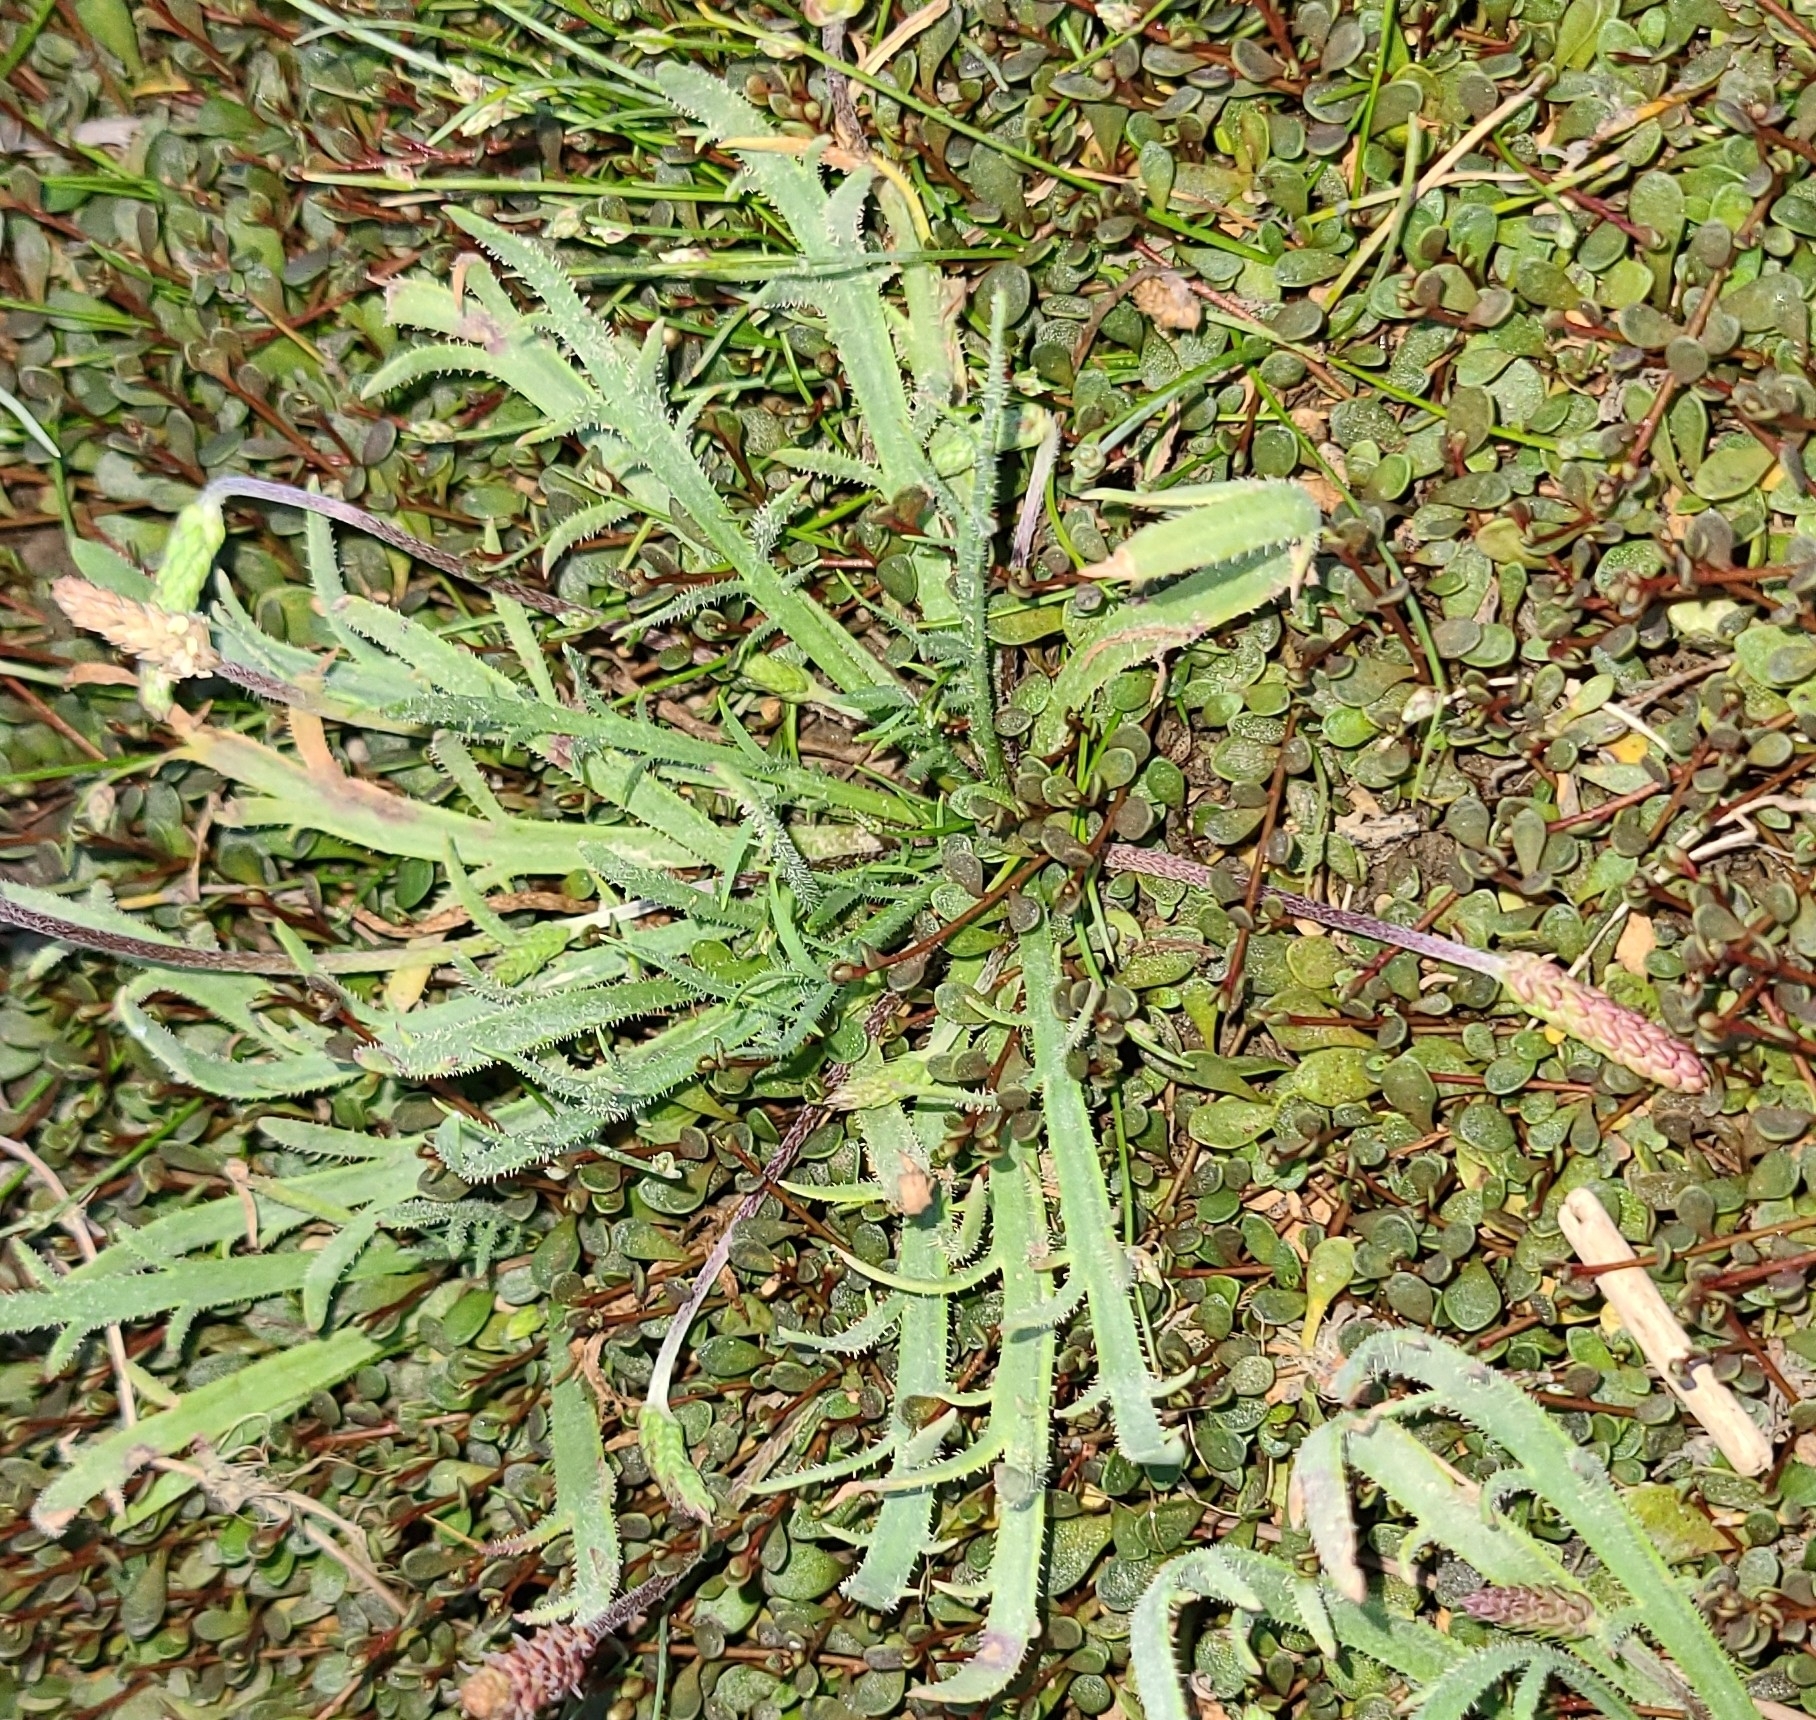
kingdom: Plantae
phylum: Tracheophyta
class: Magnoliopsida
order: Lamiales
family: Plantaginaceae
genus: Plantago
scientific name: Plantago coronopus
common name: Buck's-horn plantain
